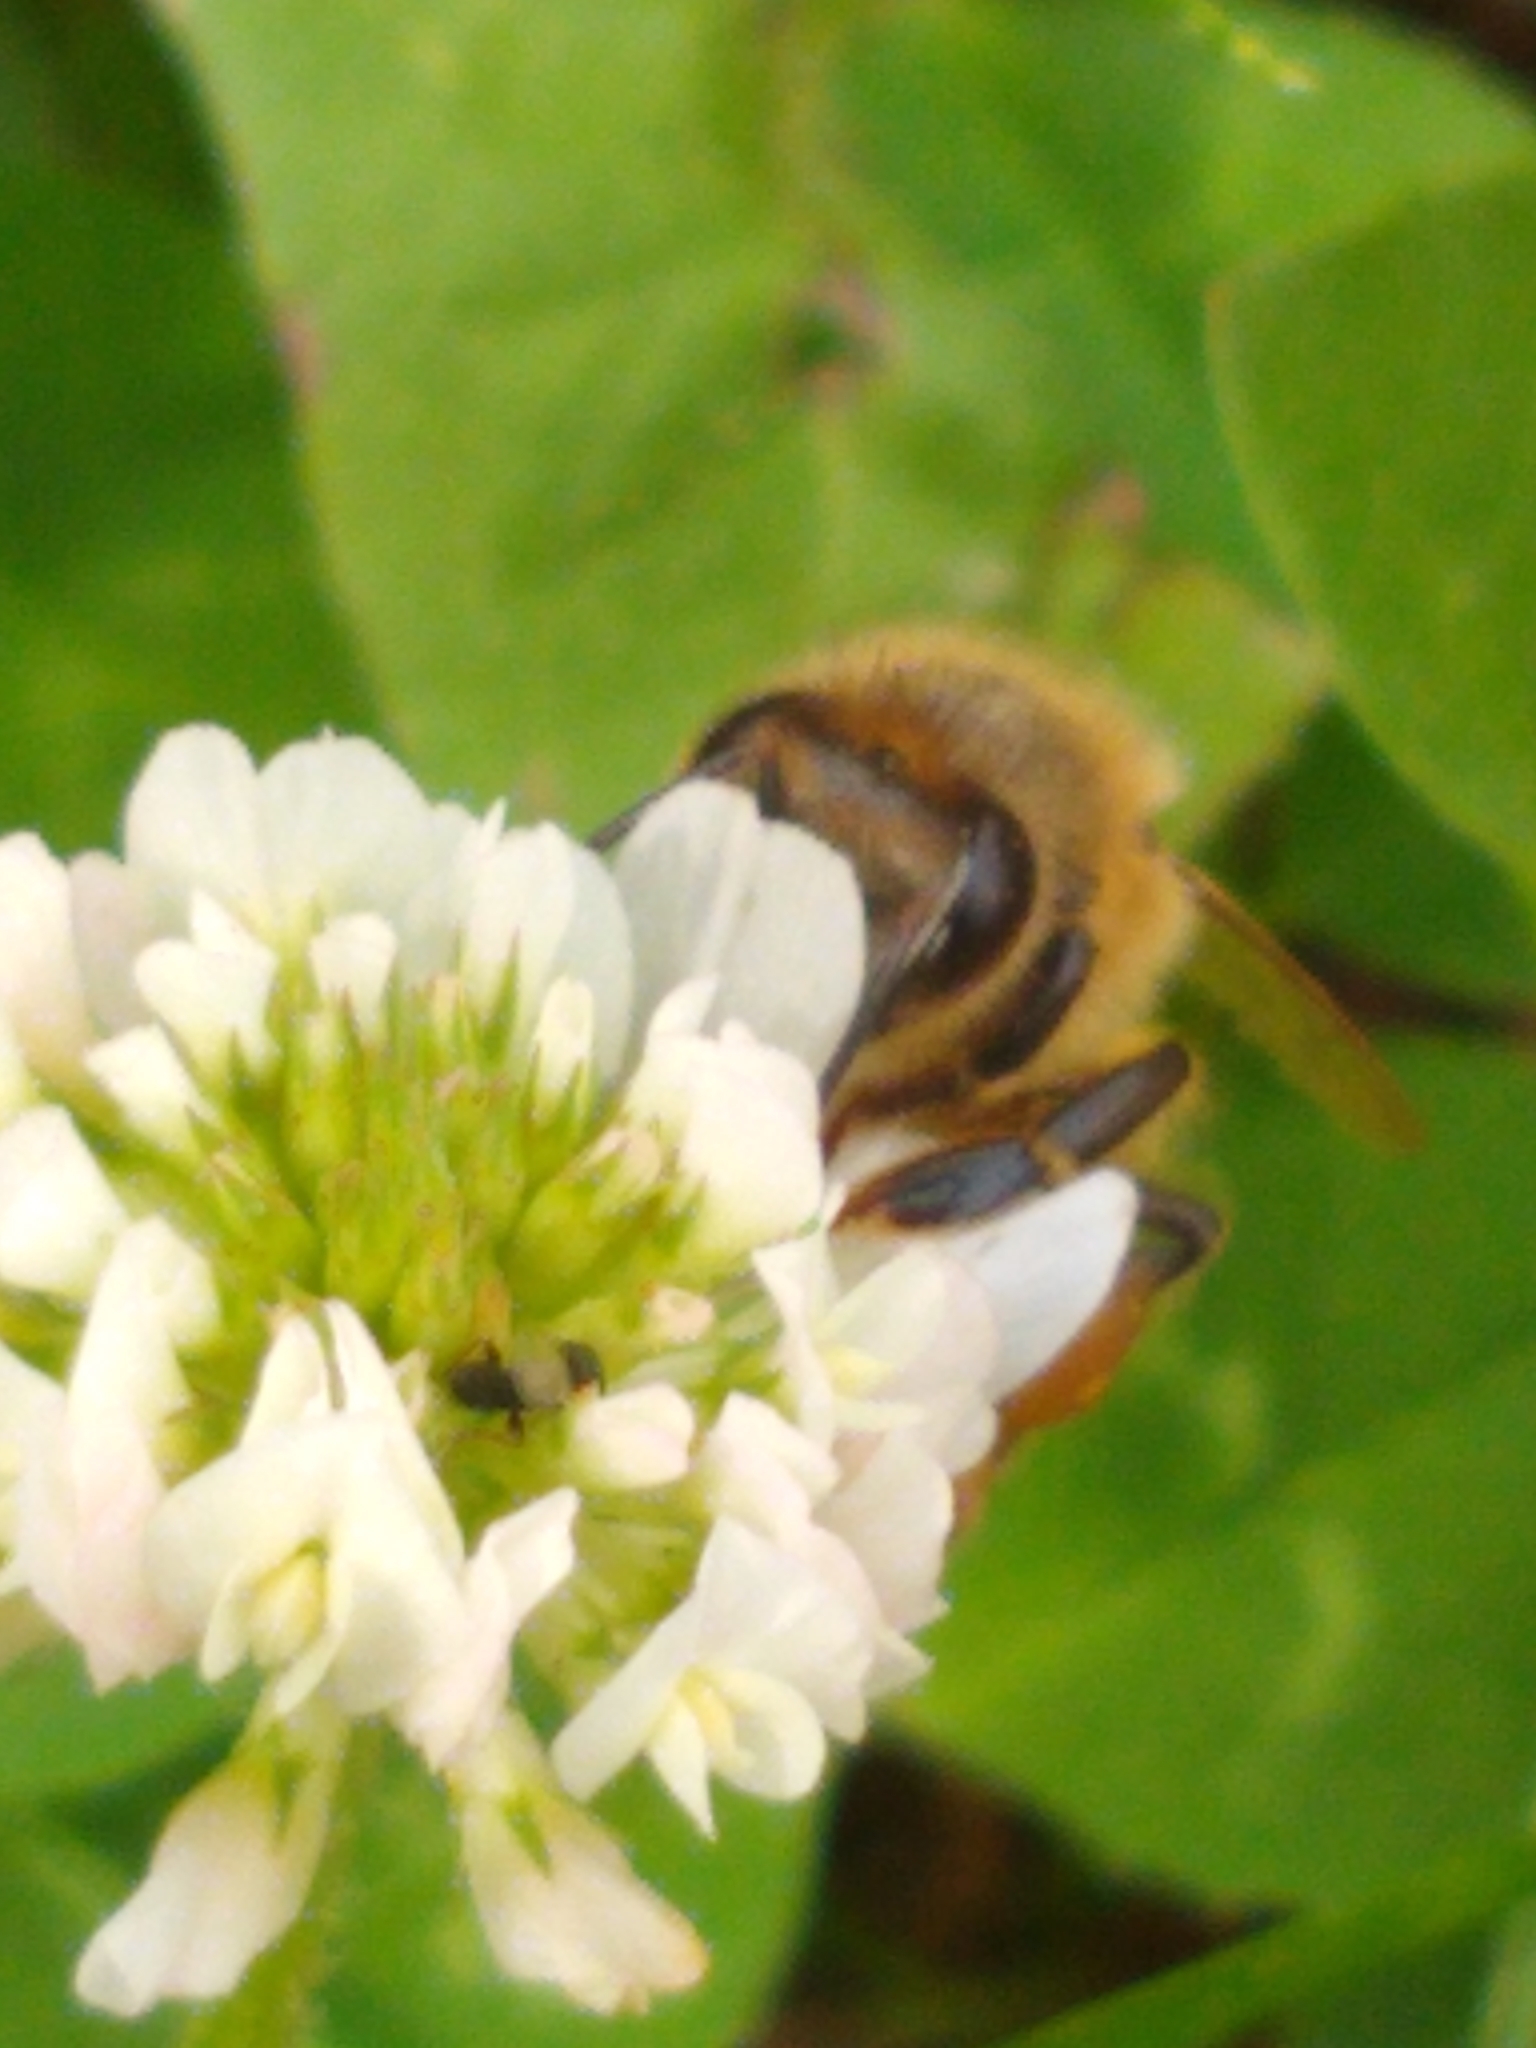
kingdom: Animalia
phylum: Arthropoda
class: Insecta
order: Hymenoptera
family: Apidae
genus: Apis
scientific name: Apis mellifera
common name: Honey bee
